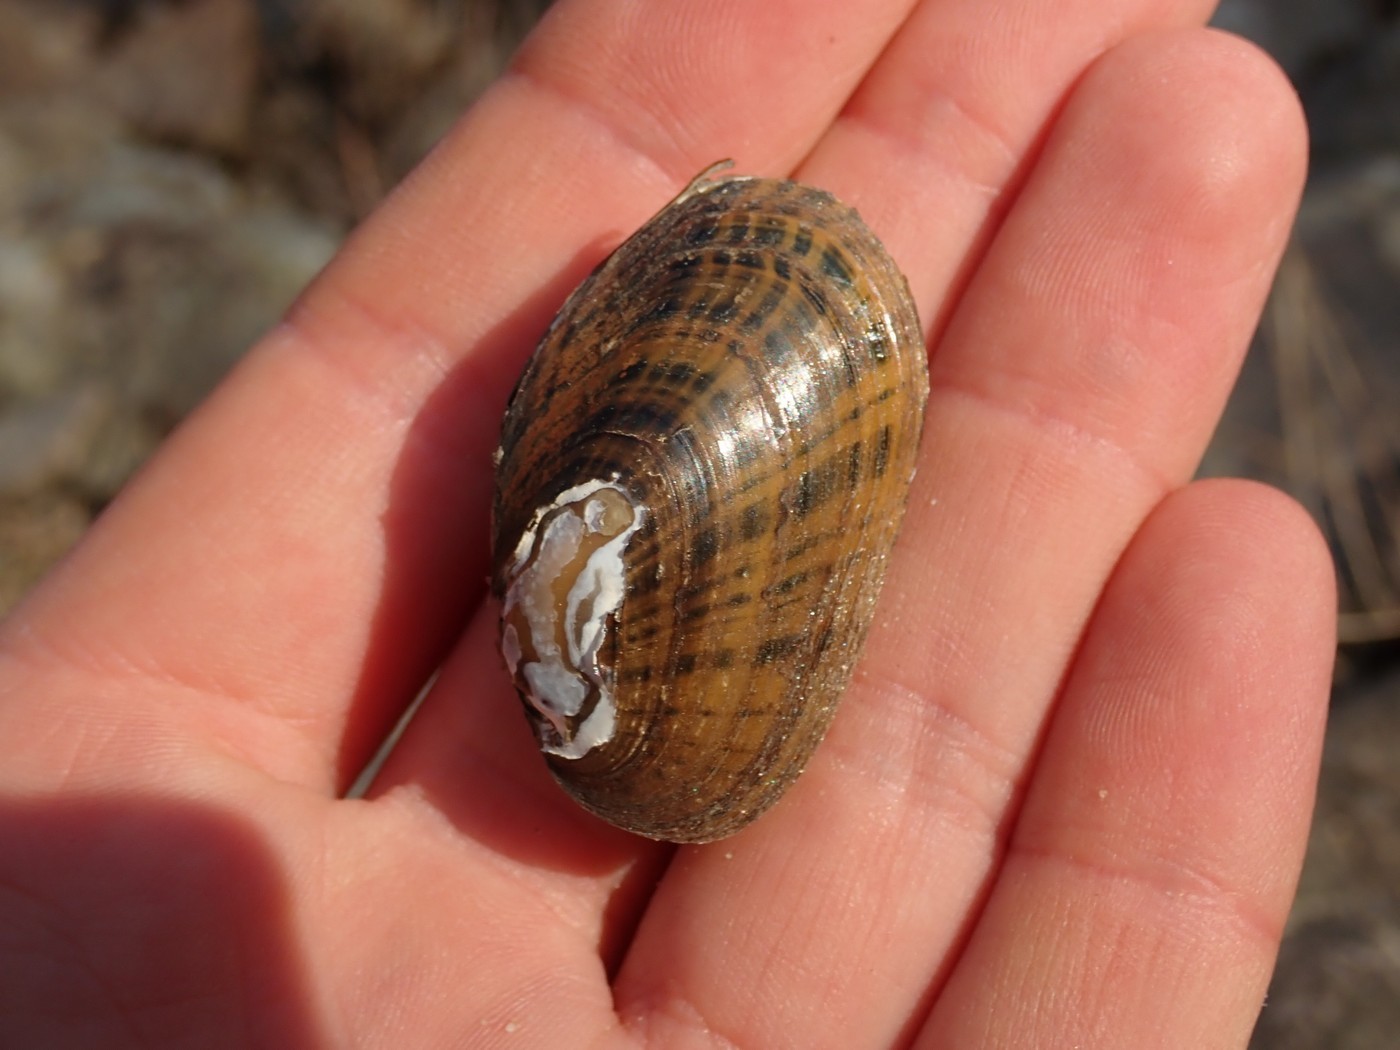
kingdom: Animalia
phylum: Mollusca
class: Bivalvia
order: Unionida
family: Unionidae
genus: Cambarunio
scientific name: Cambarunio iris
